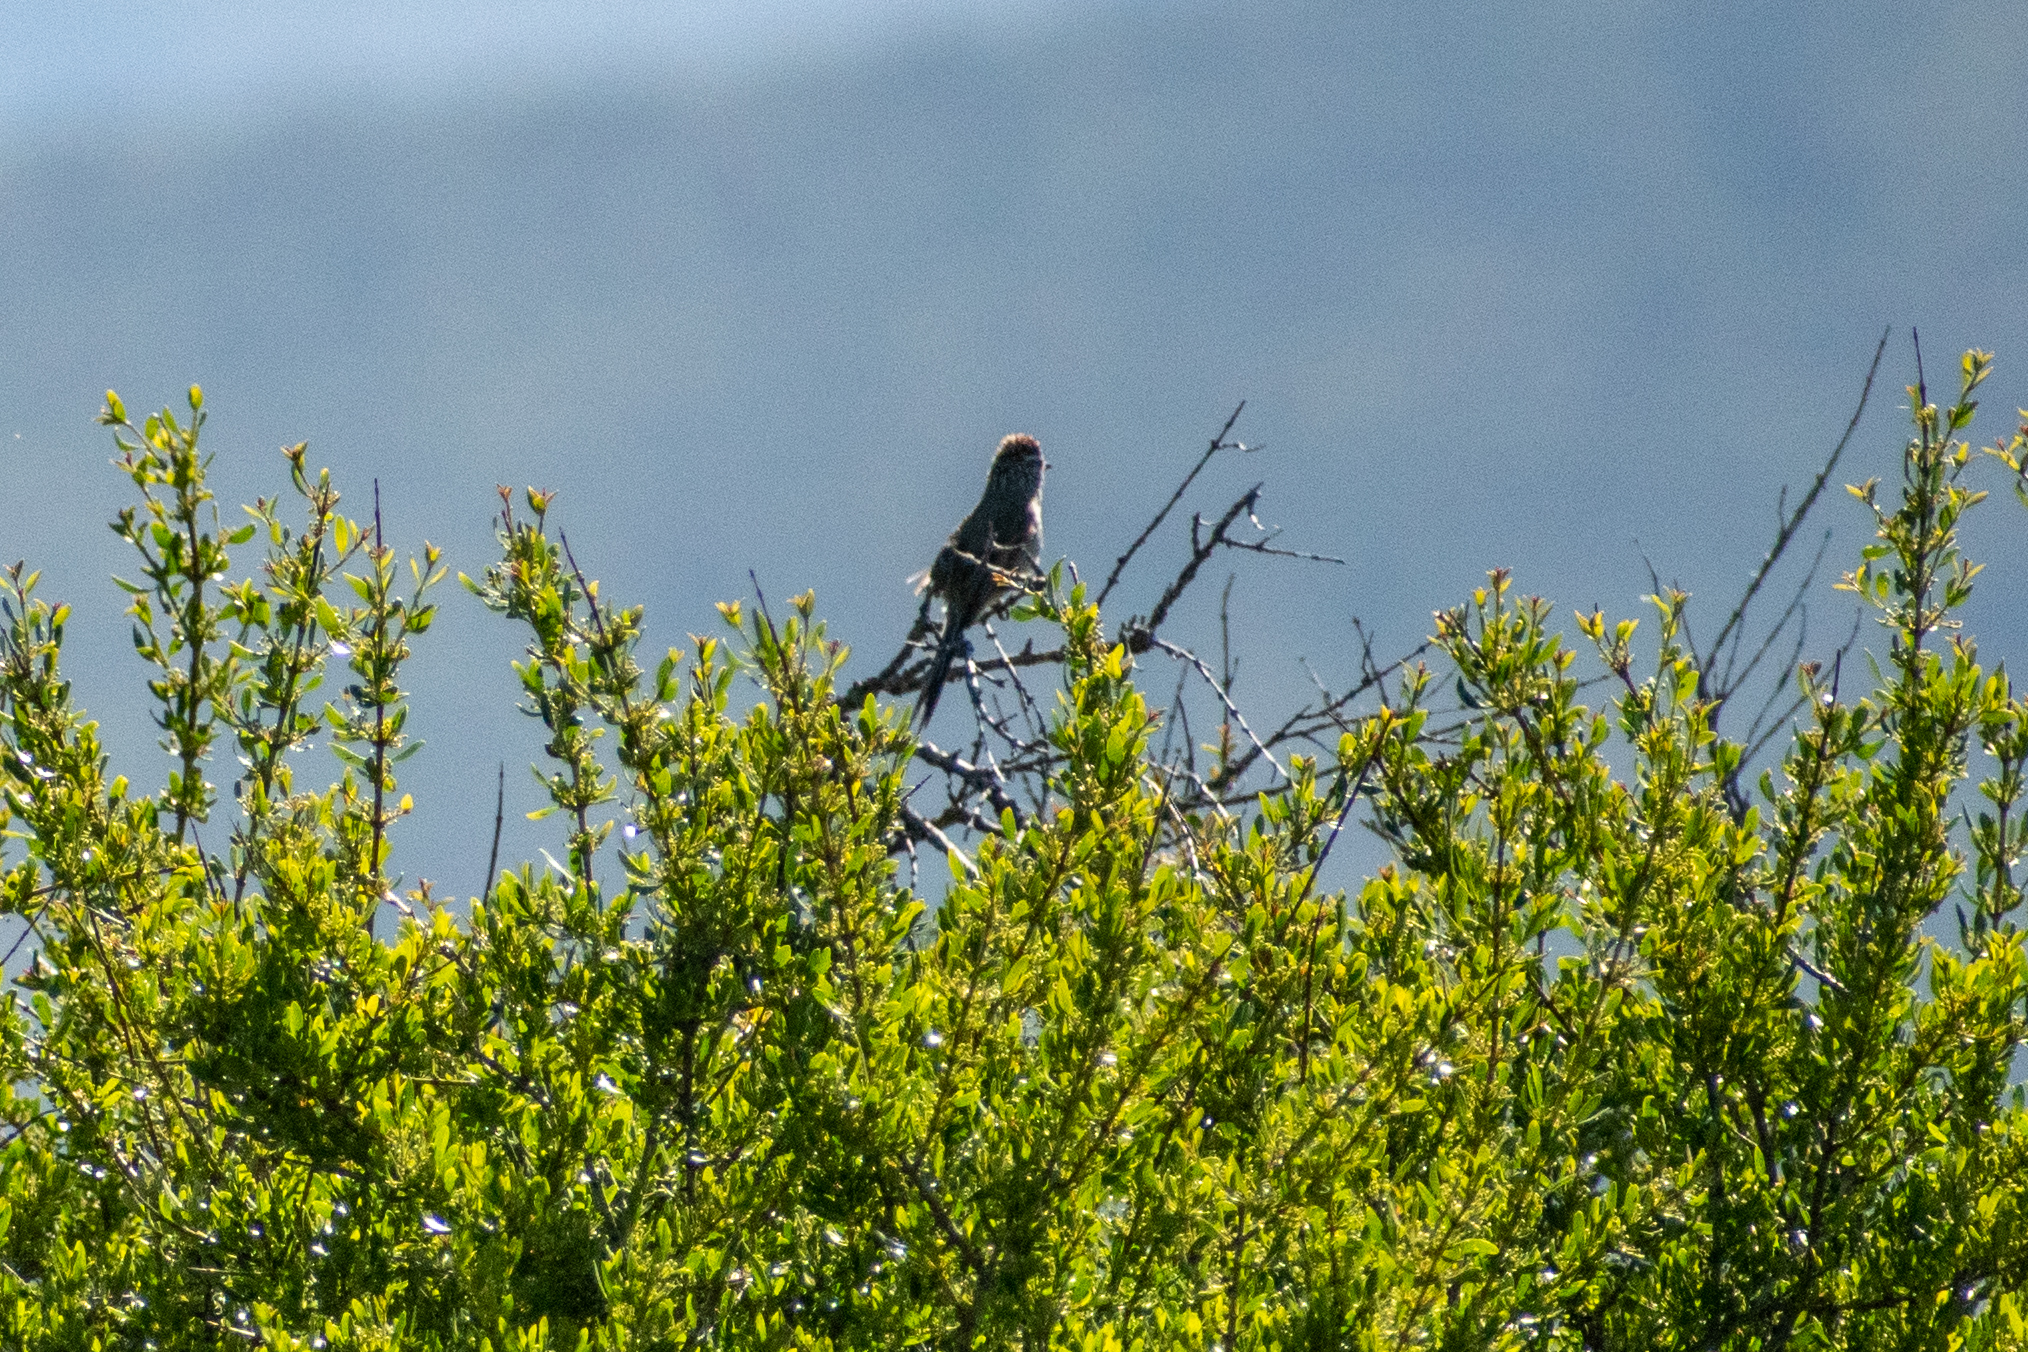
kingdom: Animalia
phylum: Chordata
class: Aves
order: Passeriformes
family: Furnariidae
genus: Leptasthenura
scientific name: Leptasthenura aegithaloides
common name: Plain-mantled tit-spinetail
